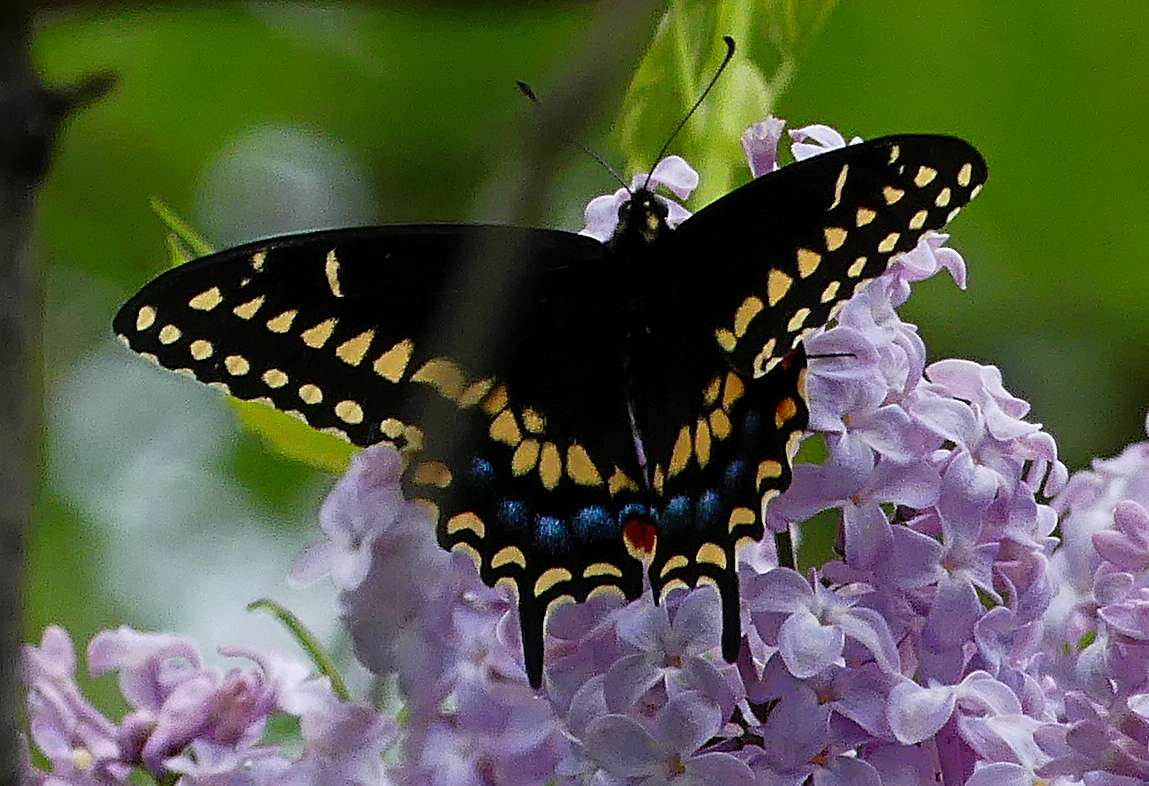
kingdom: Animalia
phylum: Arthropoda
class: Insecta
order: Lepidoptera
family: Papilionidae
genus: Papilio
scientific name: Papilio polyxenes
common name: Black swallowtail
